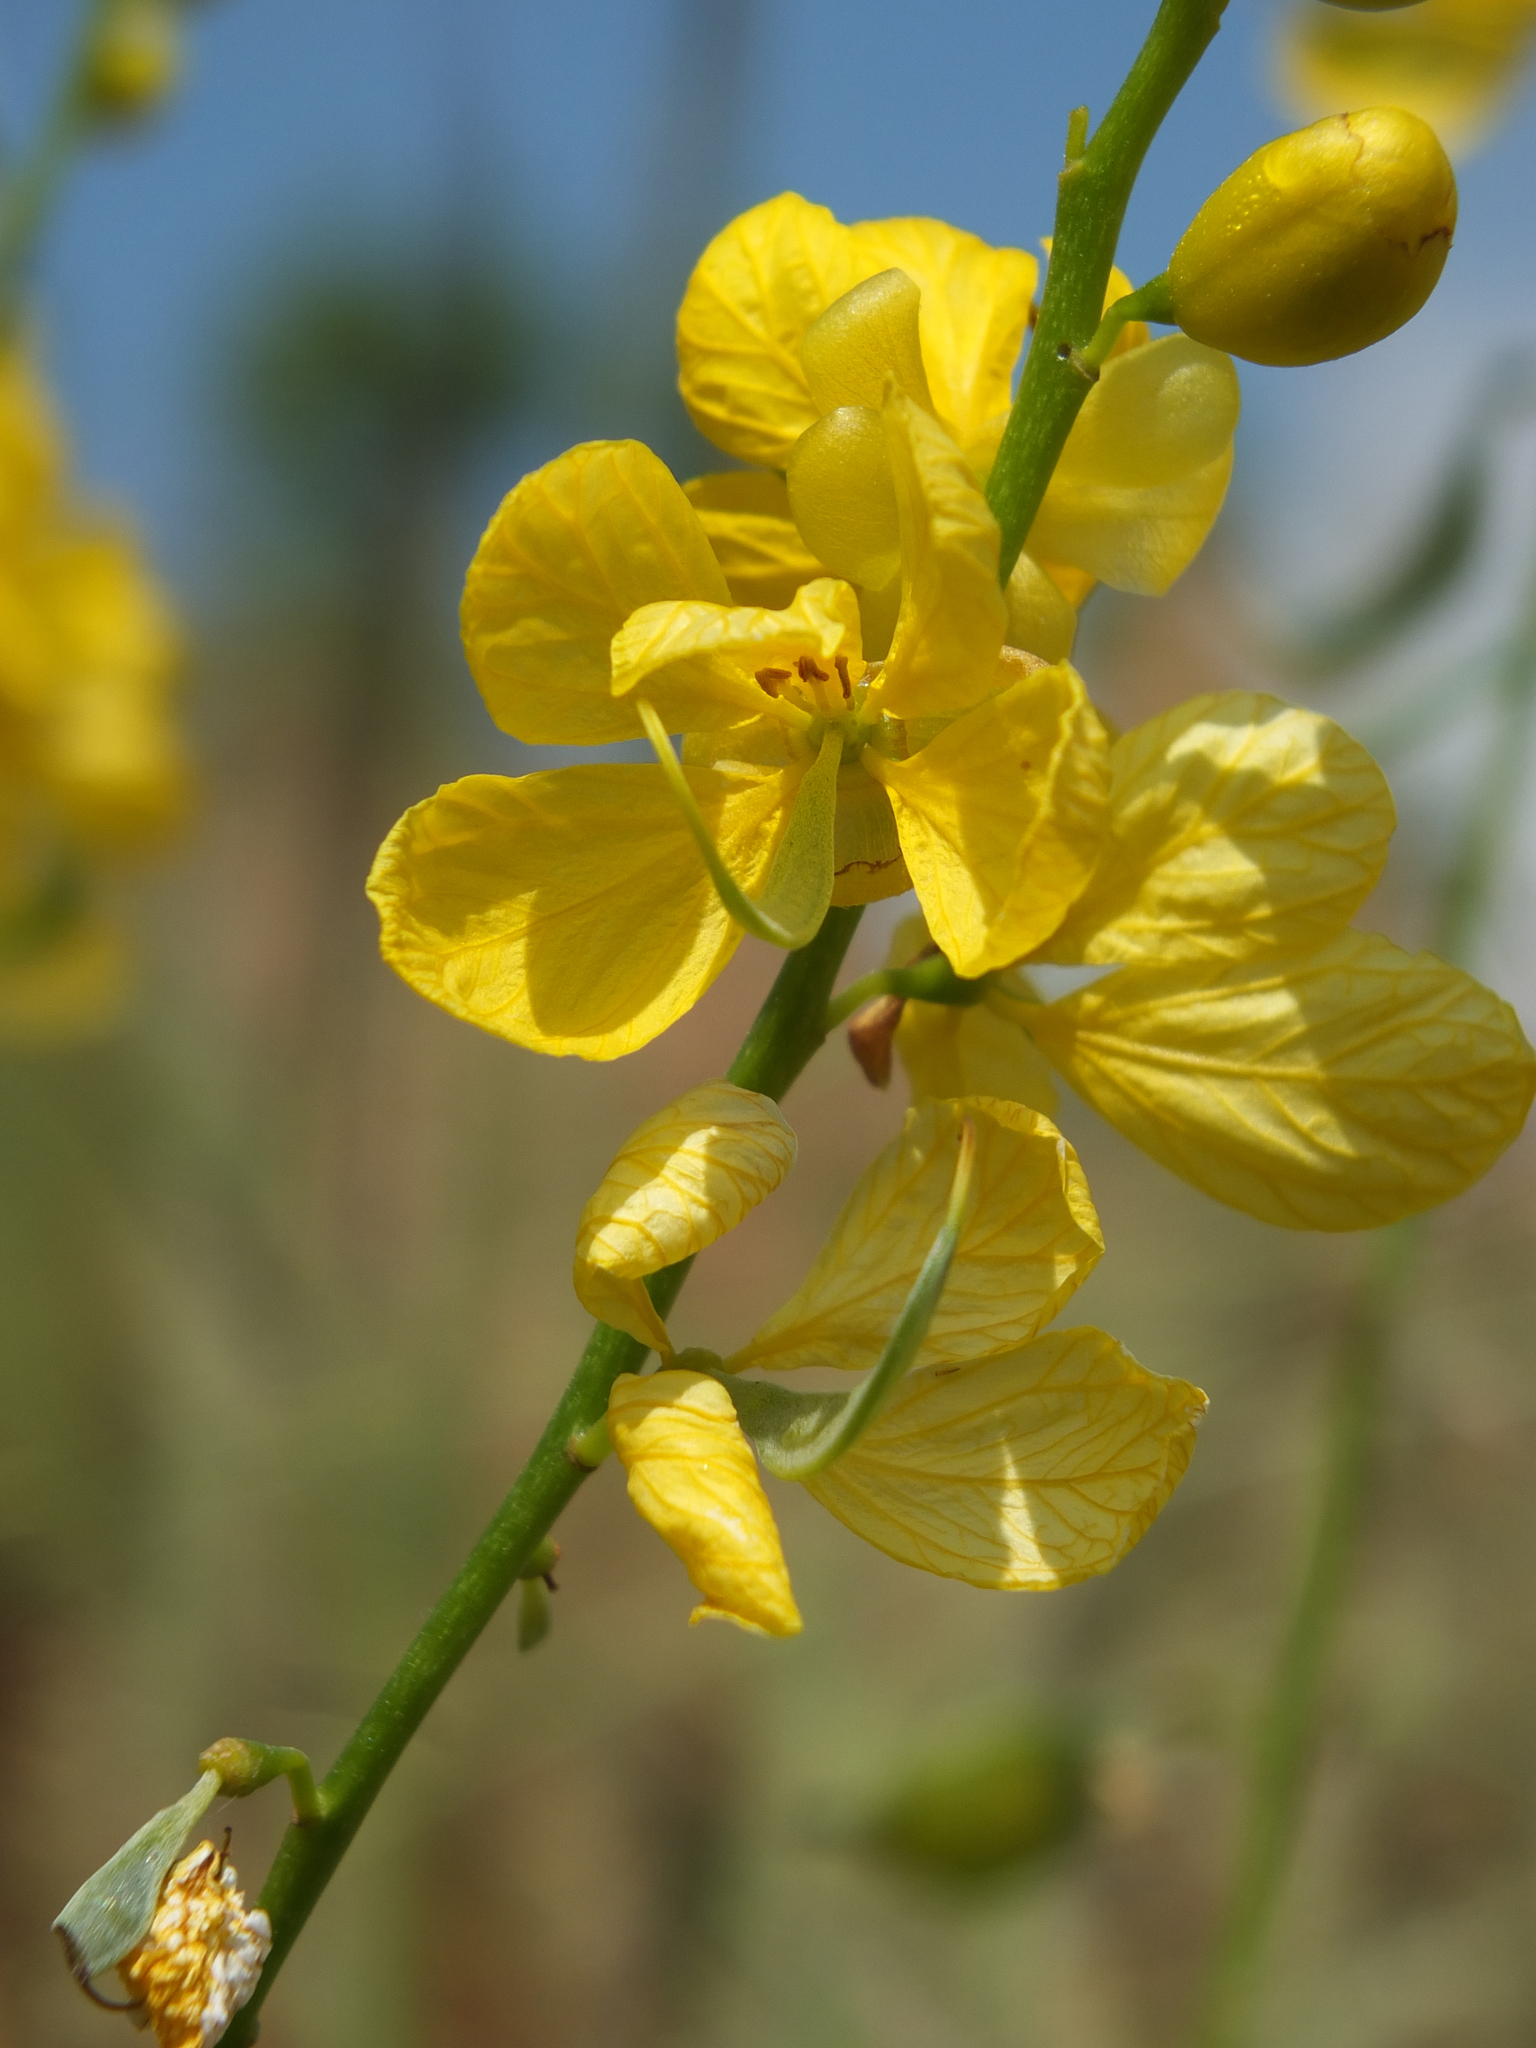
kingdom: Plantae
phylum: Tracheophyta
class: Magnoliopsida
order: Fabales
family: Fabaceae
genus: Senna
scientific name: Senna alexandrina
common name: True senna
